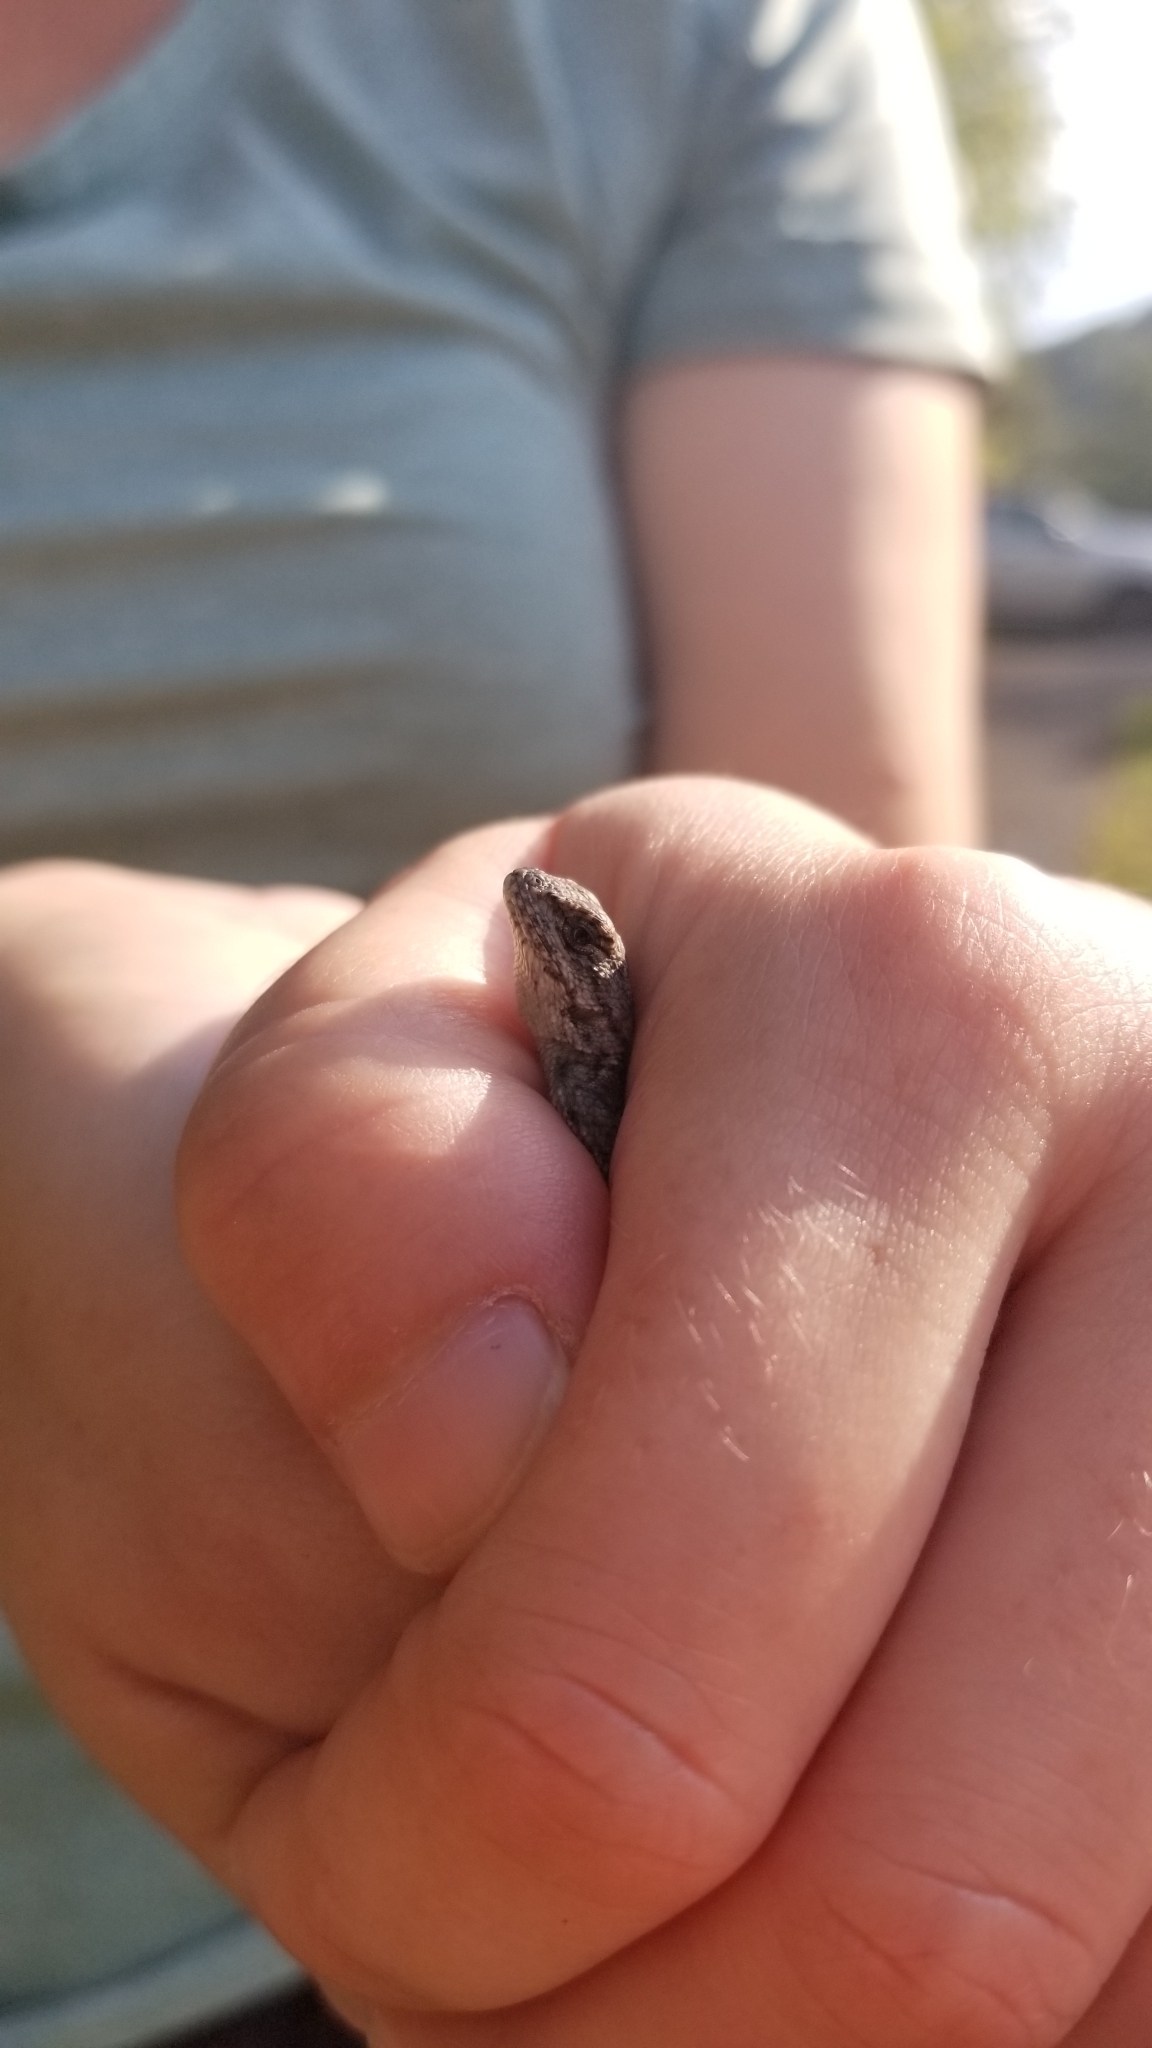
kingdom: Animalia
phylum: Chordata
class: Squamata
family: Phrynosomatidae
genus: Sceloporus
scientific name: Sceloporus undulatus
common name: Eastern fence lizard
